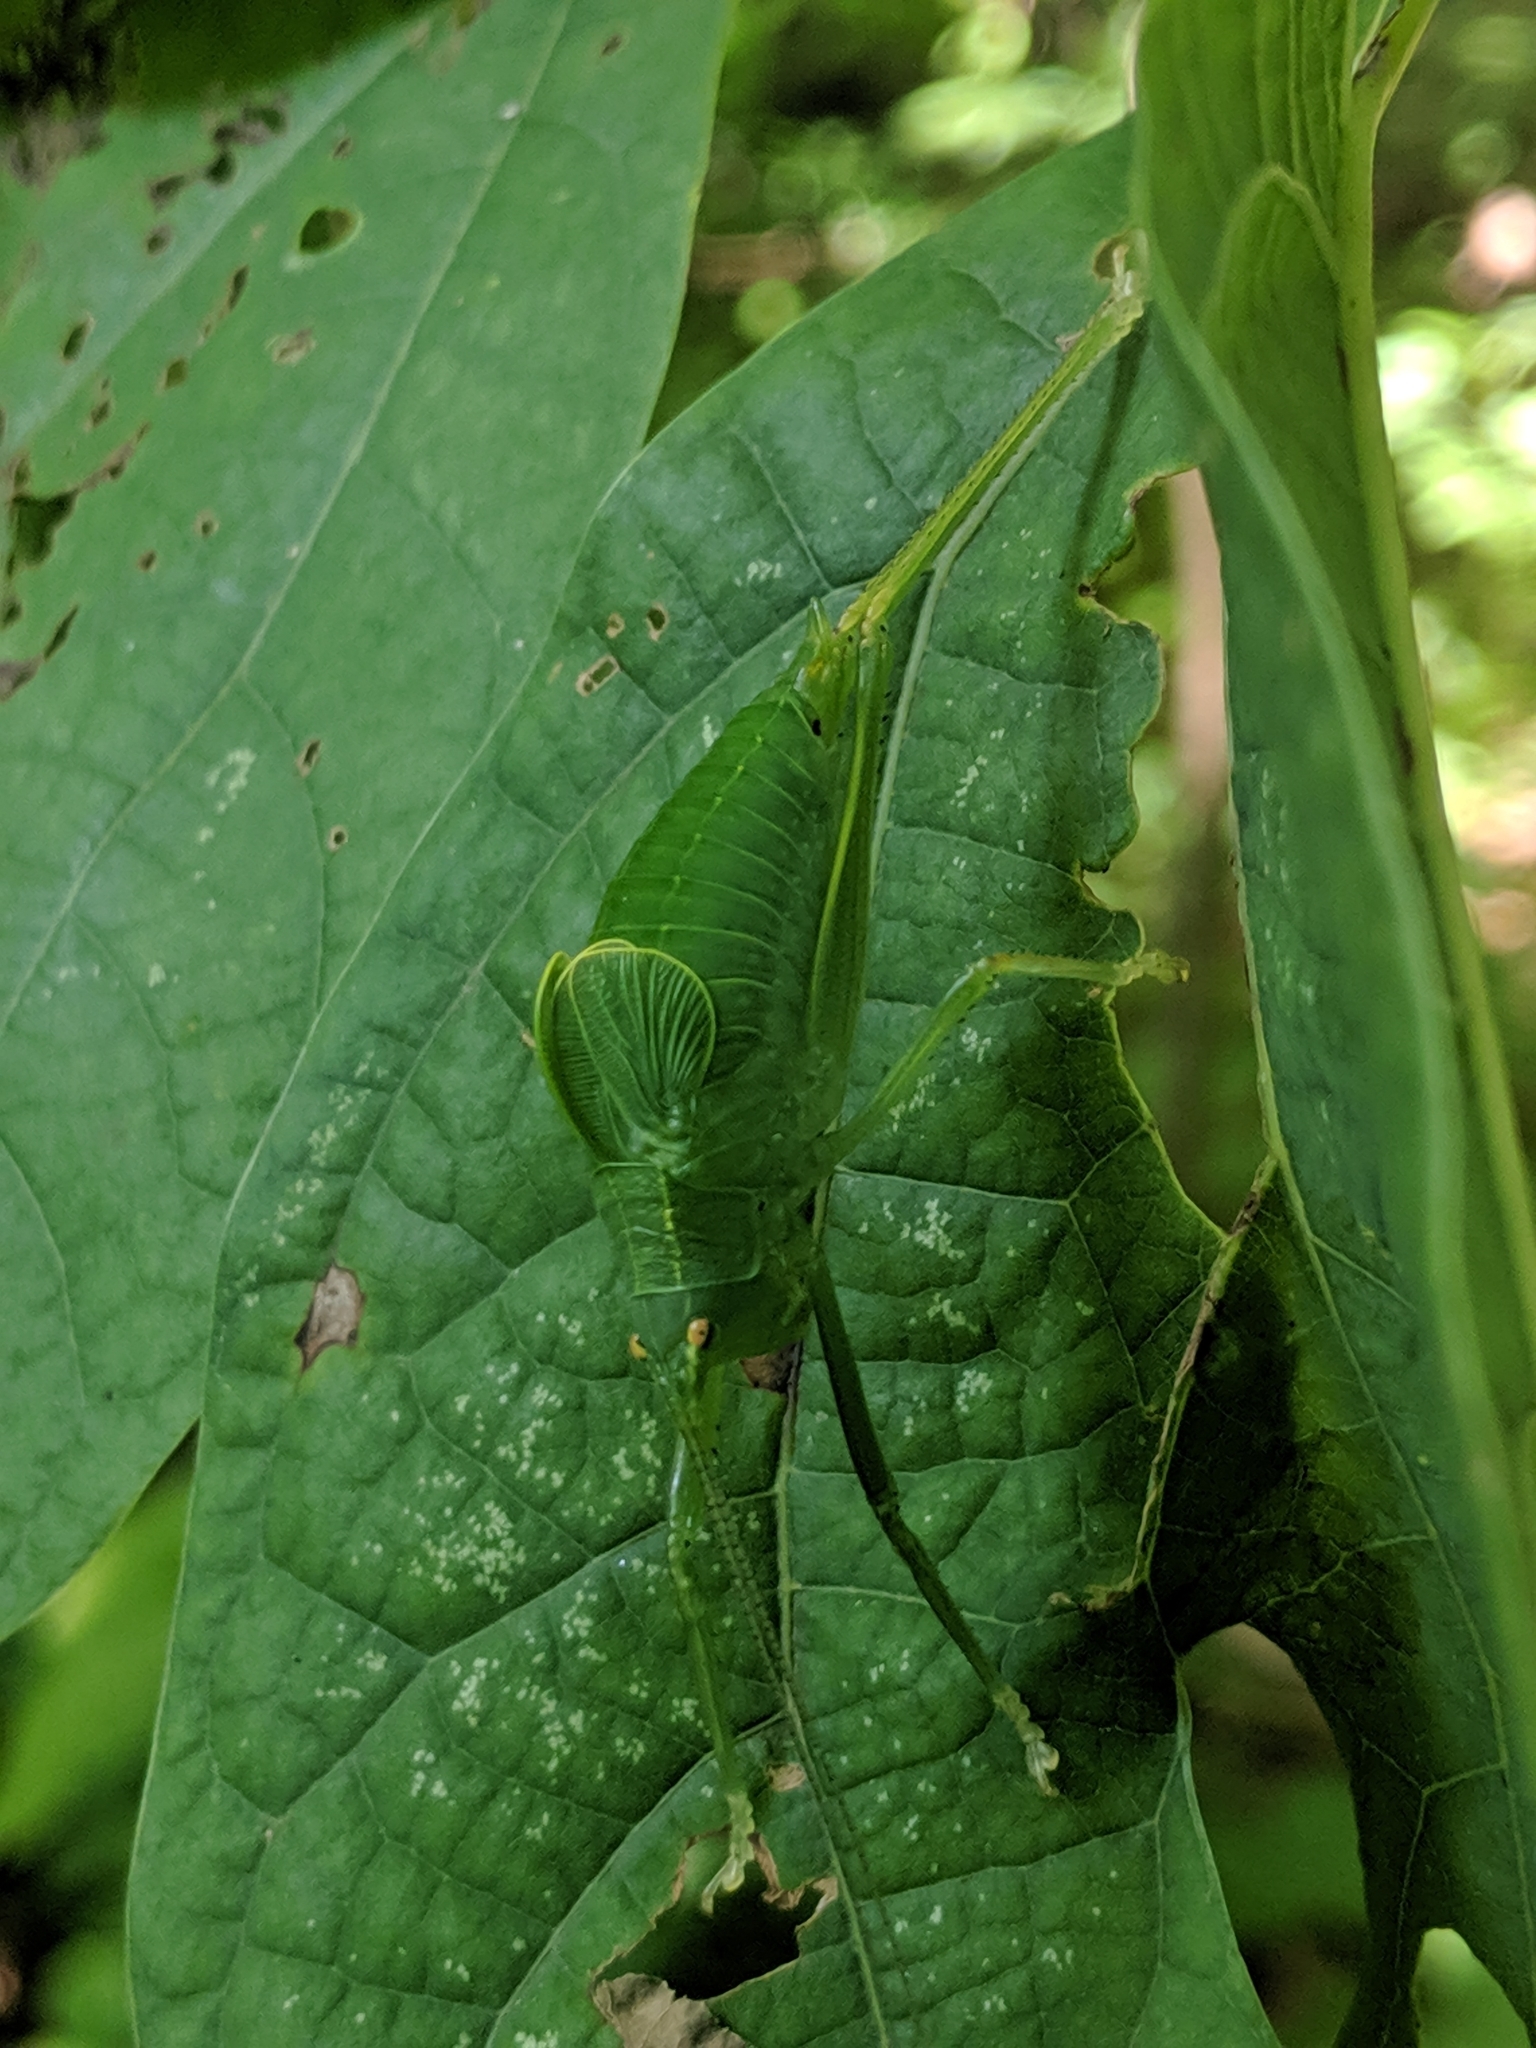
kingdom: Animalia
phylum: Arthropoda
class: Insecta
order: Orthoptera
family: Tettigoniidae
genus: Pterophylla
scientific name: Pterophylla camellifolia
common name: Common true katydid
